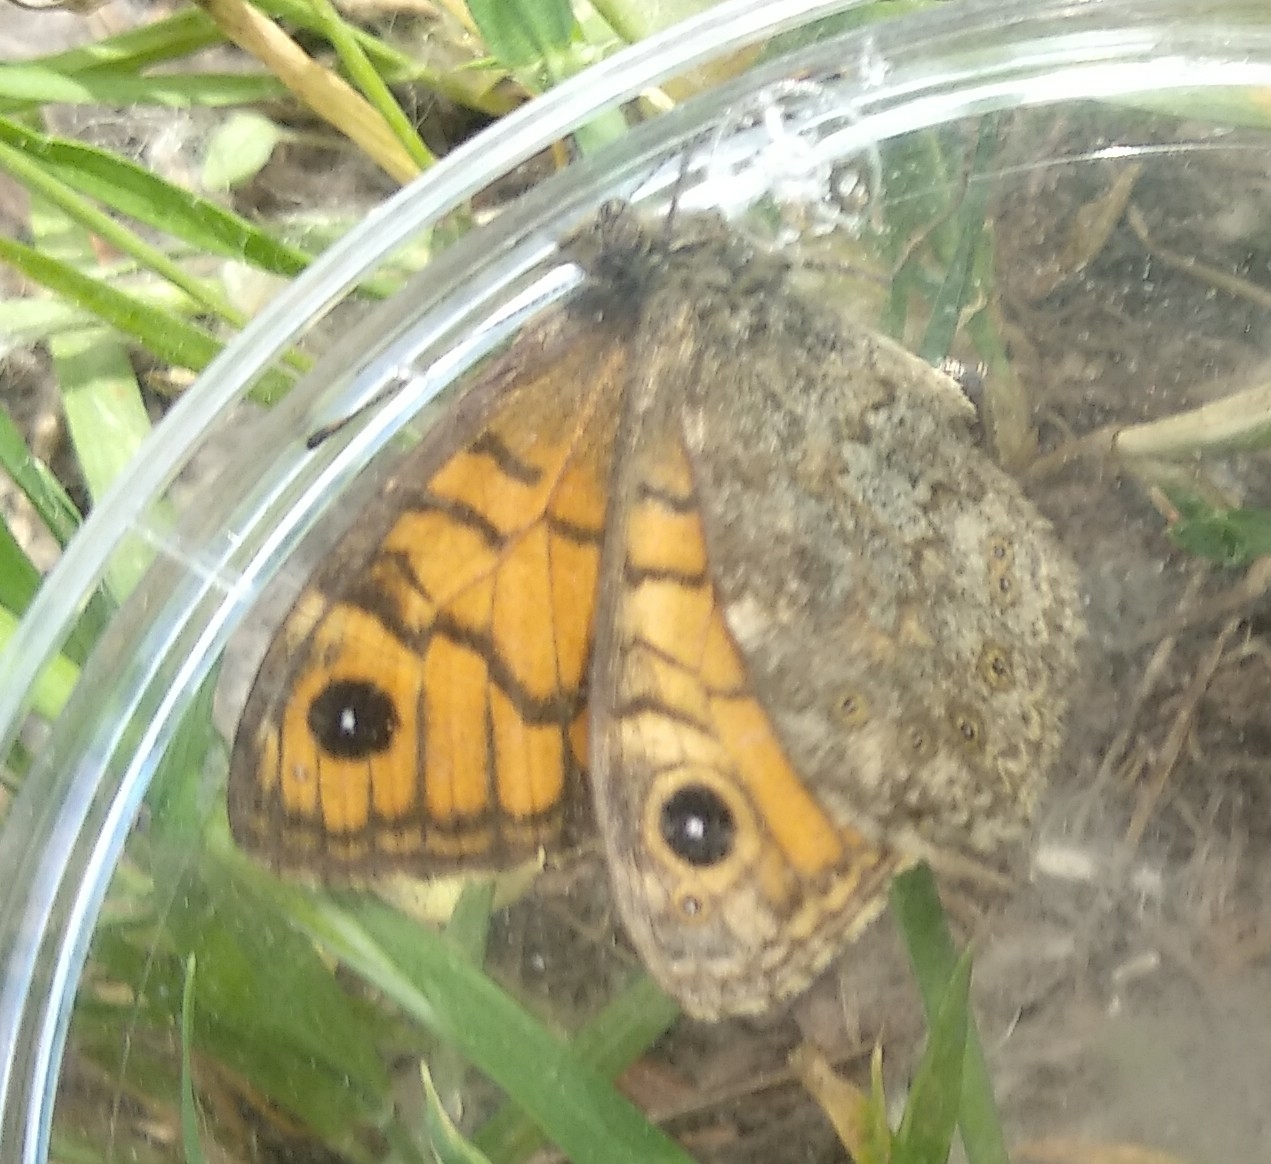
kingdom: Animalia
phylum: Arthropoda
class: Insecta
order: Lepidoptera
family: Nymphalidae
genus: Pararge
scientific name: Pararge Lasiommata megera
